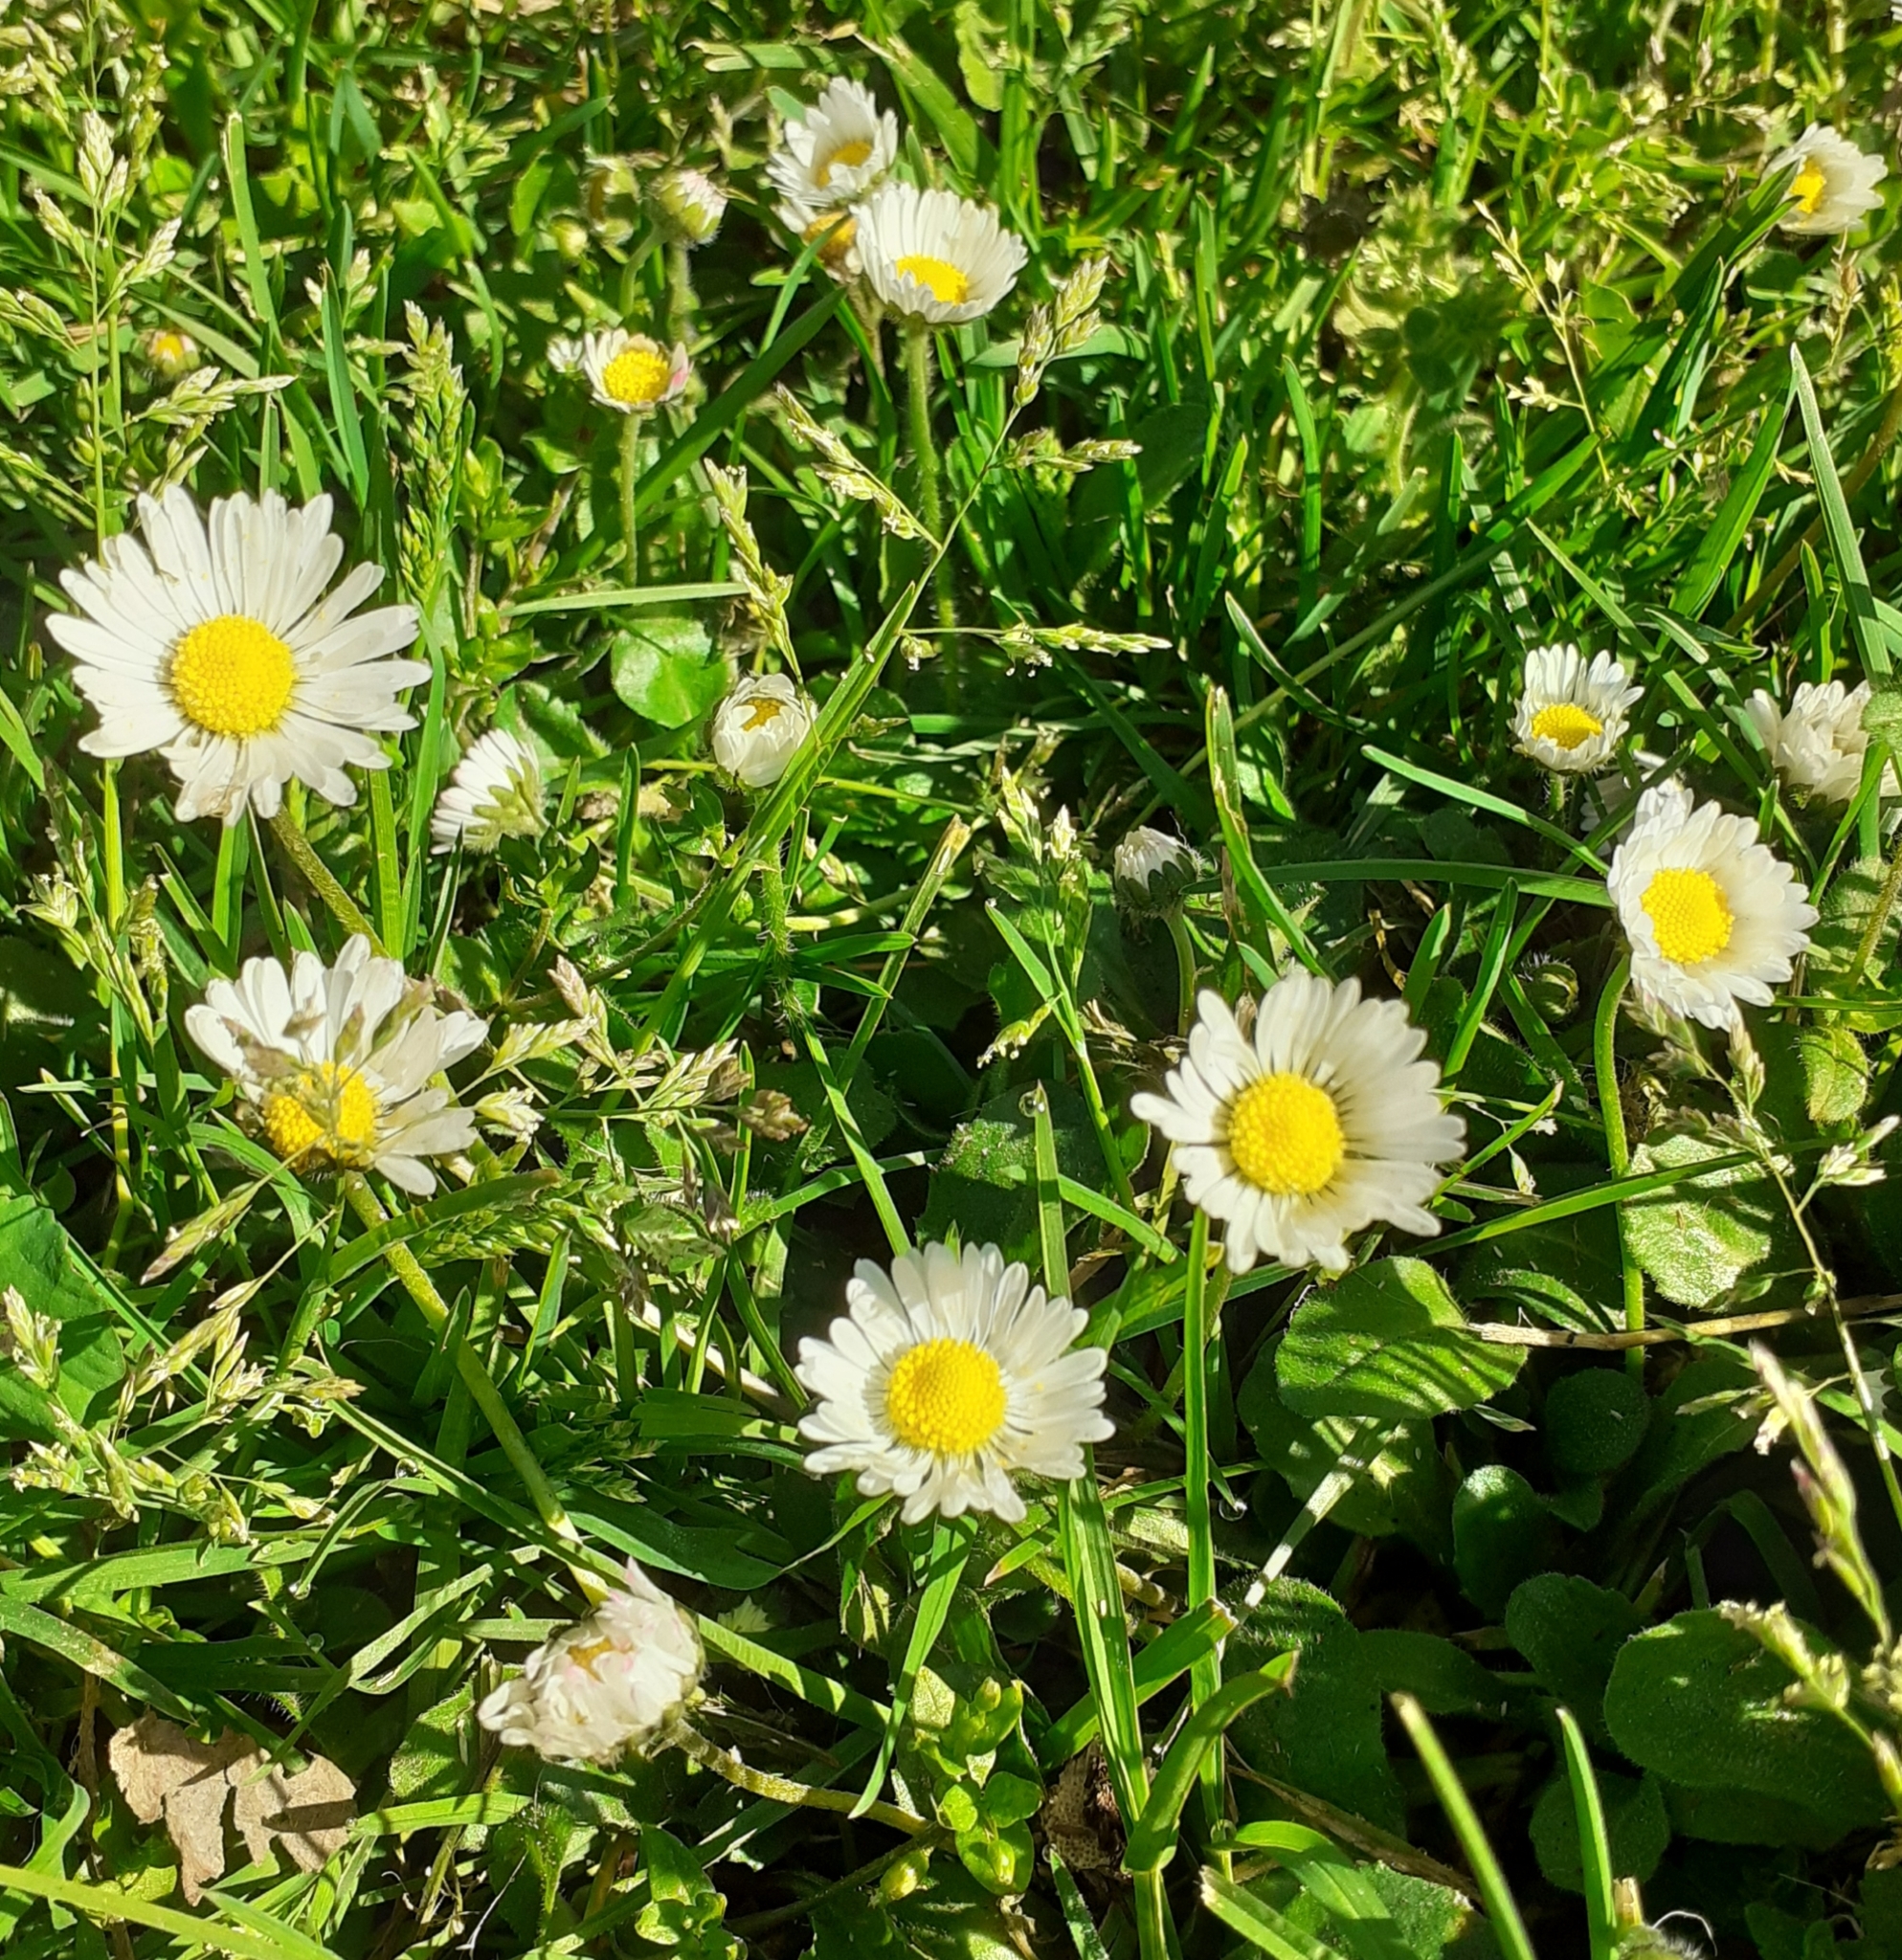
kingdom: Plantae
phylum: Tracheophyta
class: Magnoliopsida
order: Asterales
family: Asteraceae
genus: Bellis
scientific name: Bellis perennis
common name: Lawndaisy
